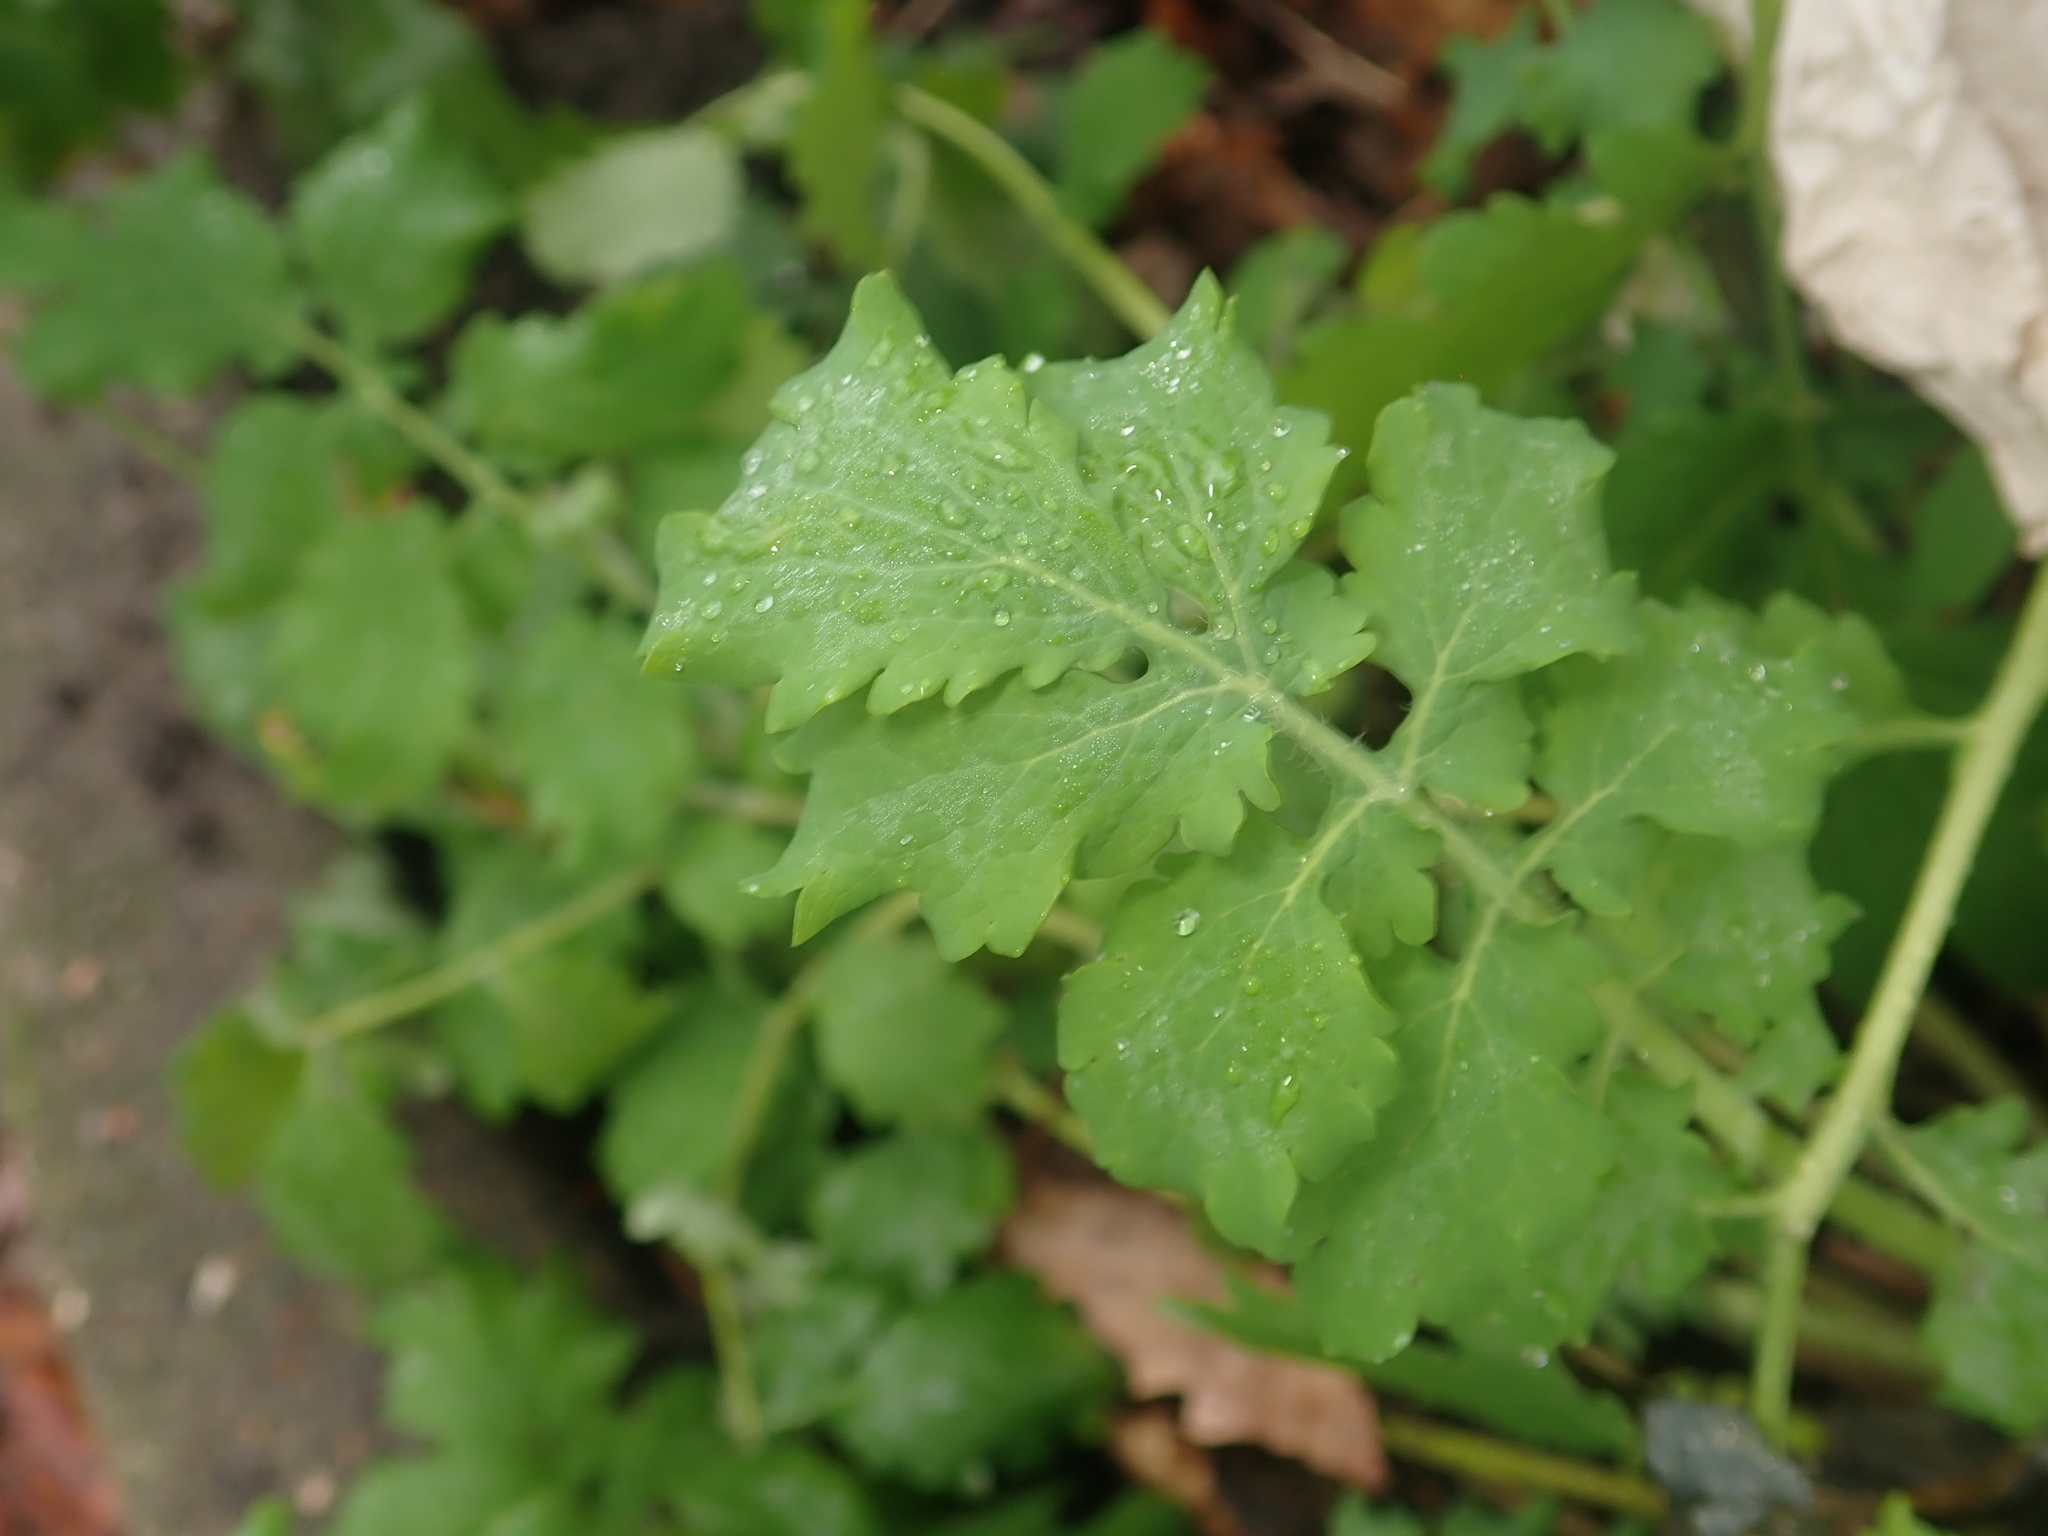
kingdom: Plantae
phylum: Tracheophyta
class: Magnoliopsida
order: Ranunculales
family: Papaveraceae
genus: Chelidonium
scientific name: Chelidonium majus
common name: Greater celandine
